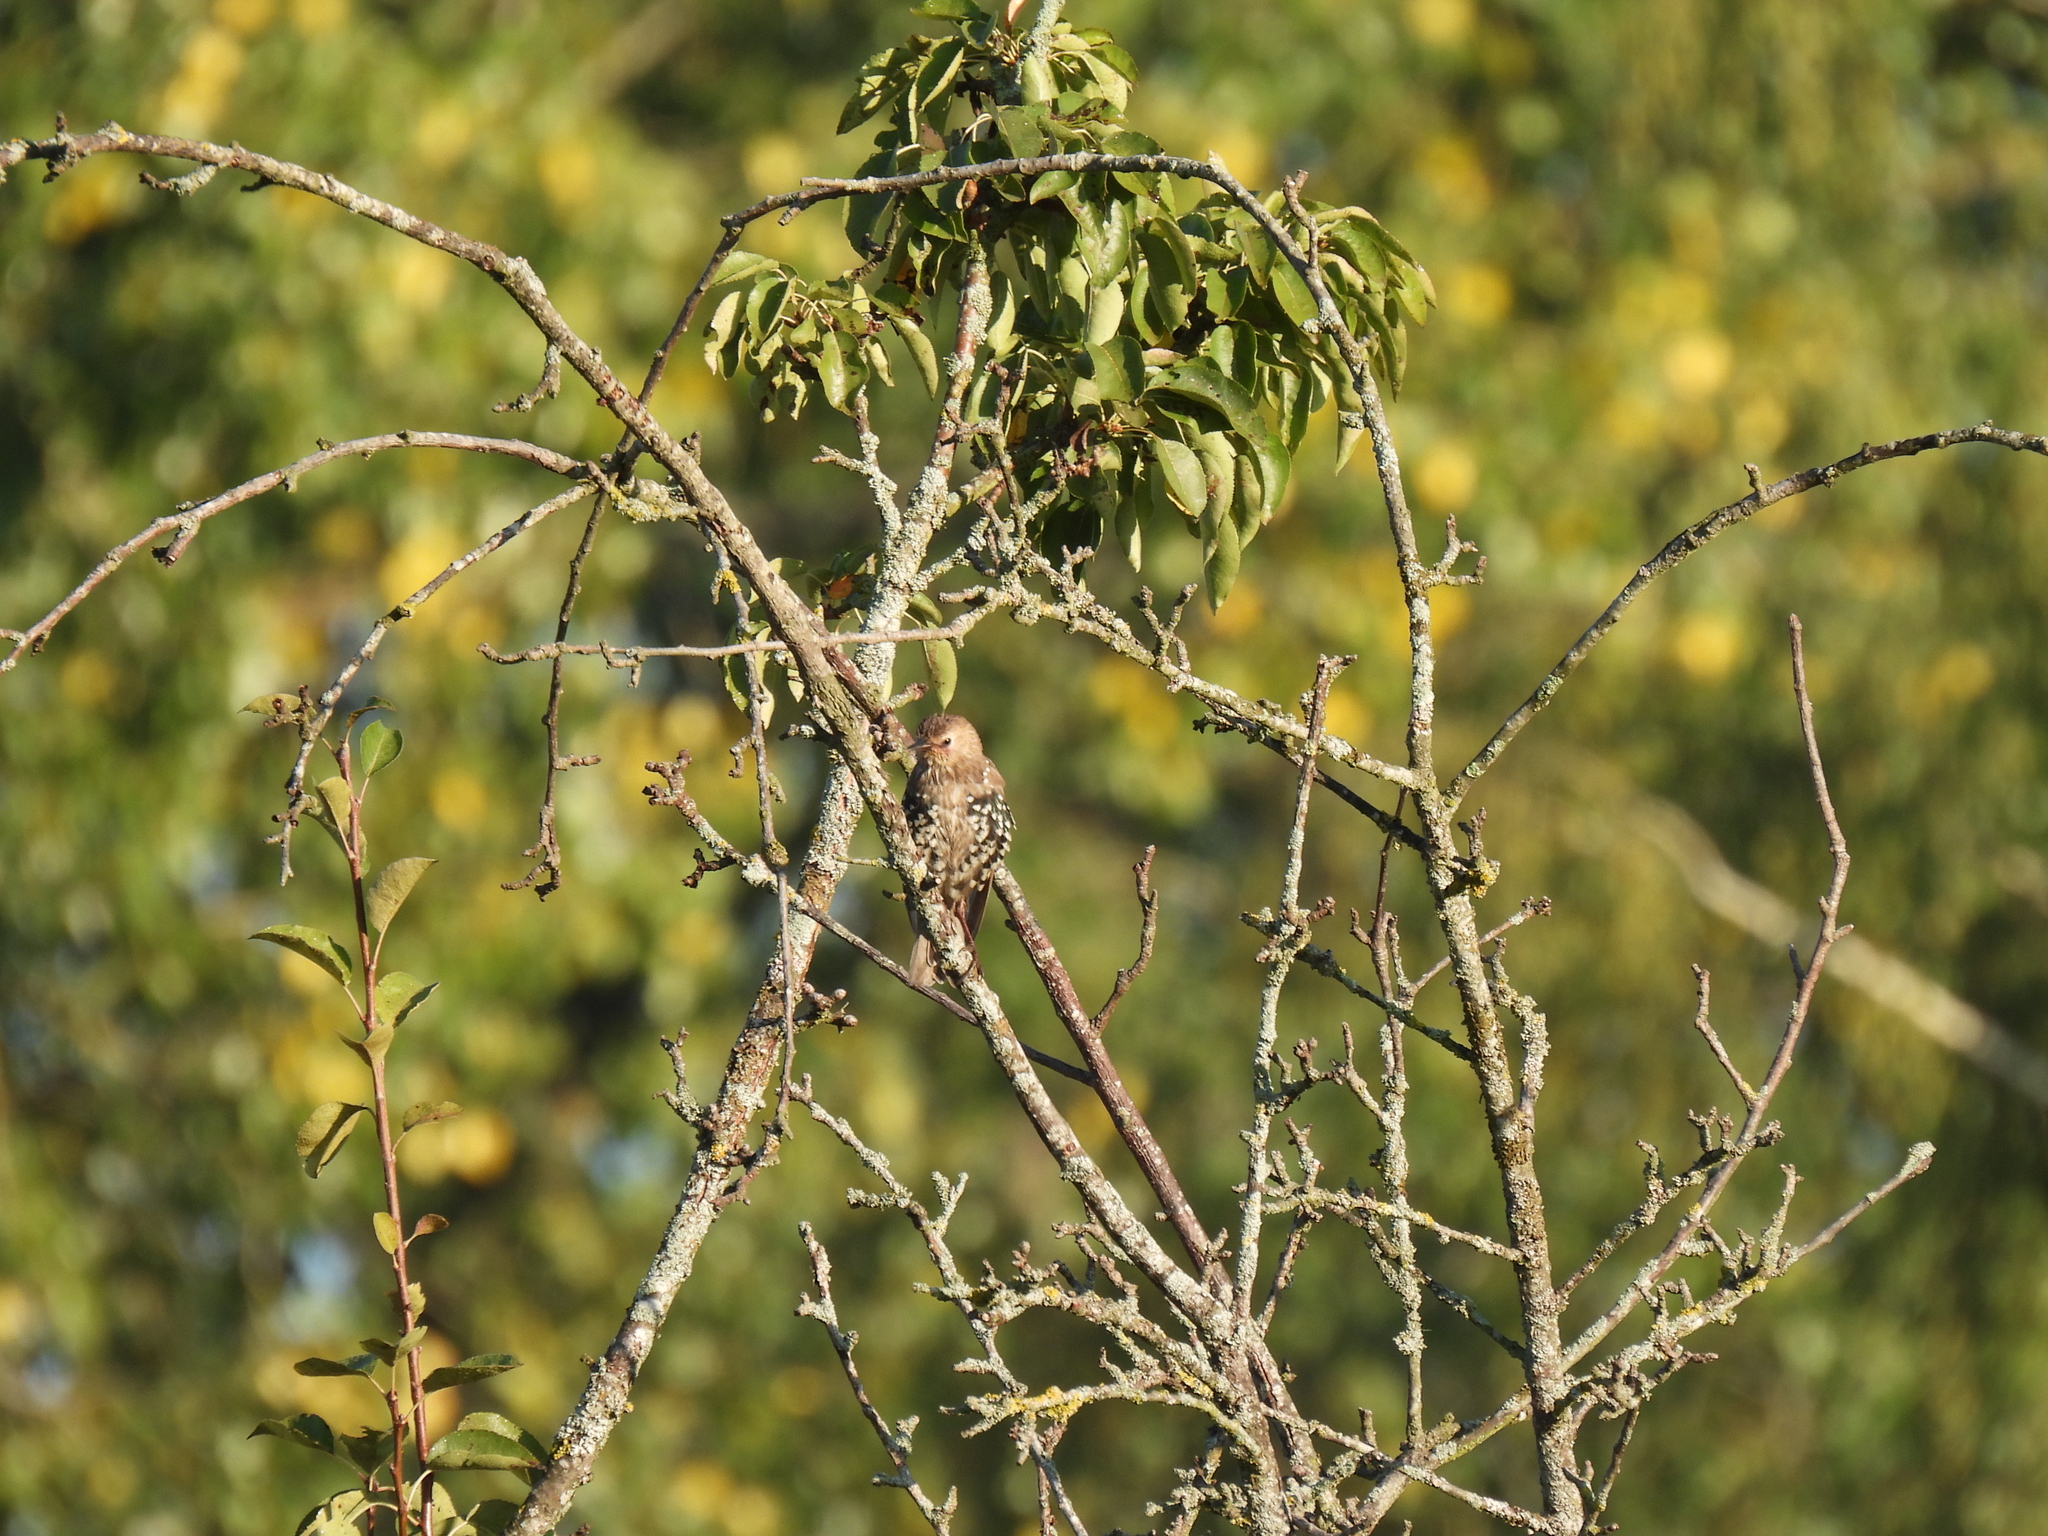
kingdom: Animalia
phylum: Chordata
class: Aves
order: Passeriformes
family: Sturnidae
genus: Sturnus
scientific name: Sturnus vulgaris
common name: Common starling
